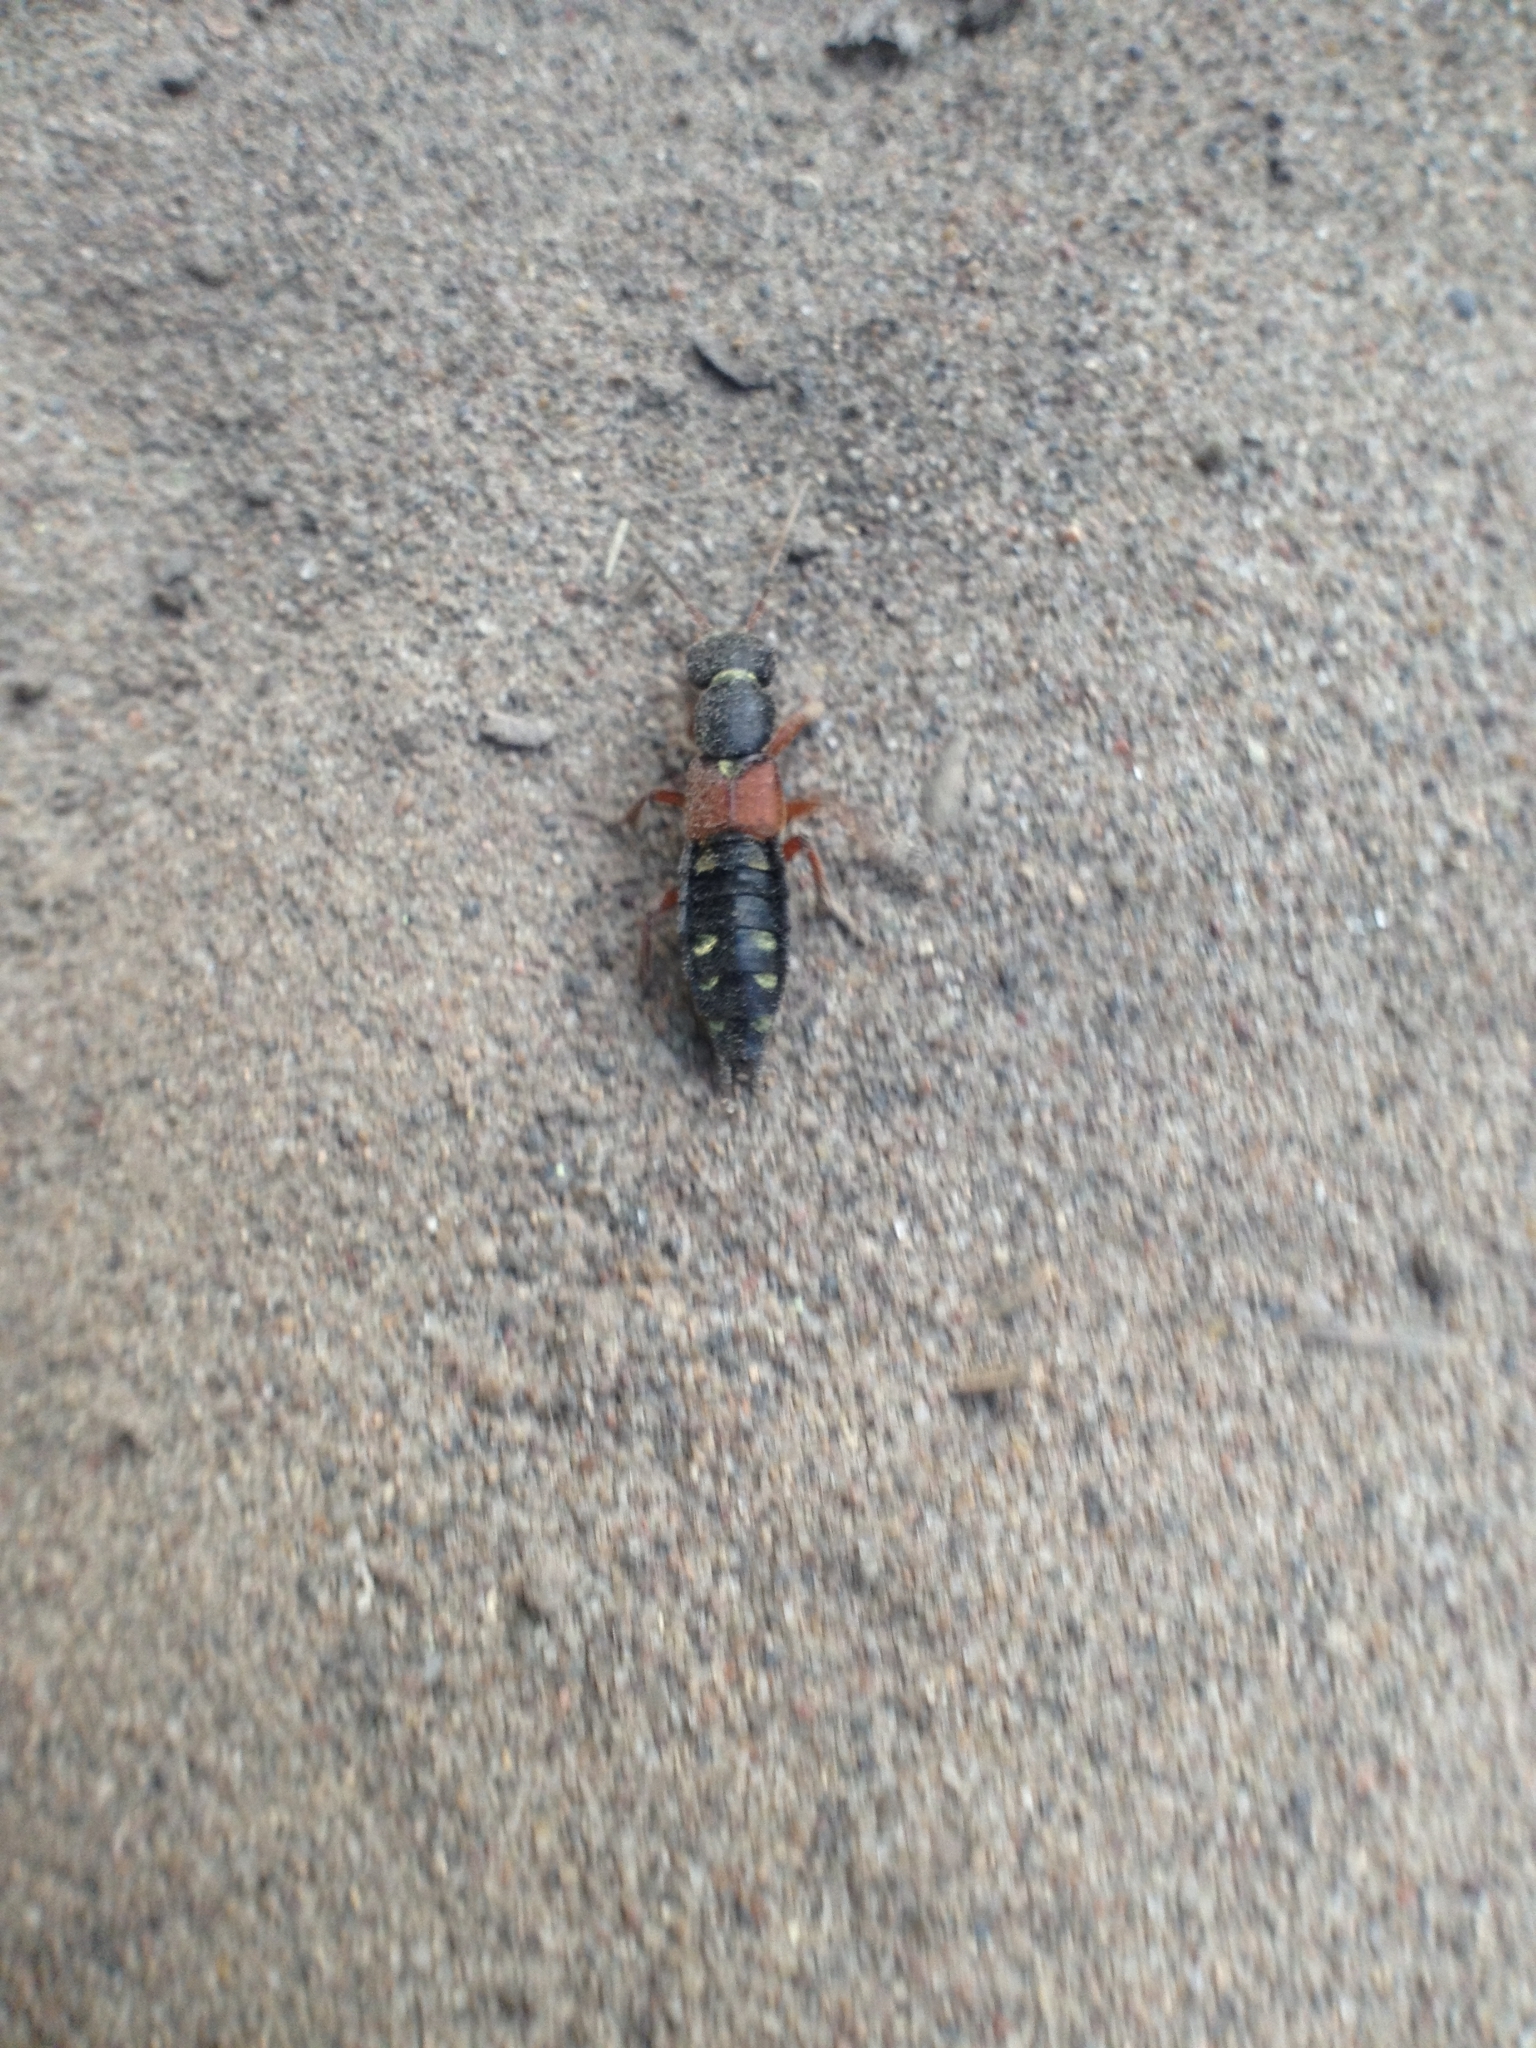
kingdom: Animalia
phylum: Arthropoda
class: Insecta
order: Coleoptera
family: Staphylinidae
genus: Staphylinus
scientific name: Staphylinus erythropterus
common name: Staph beetle
